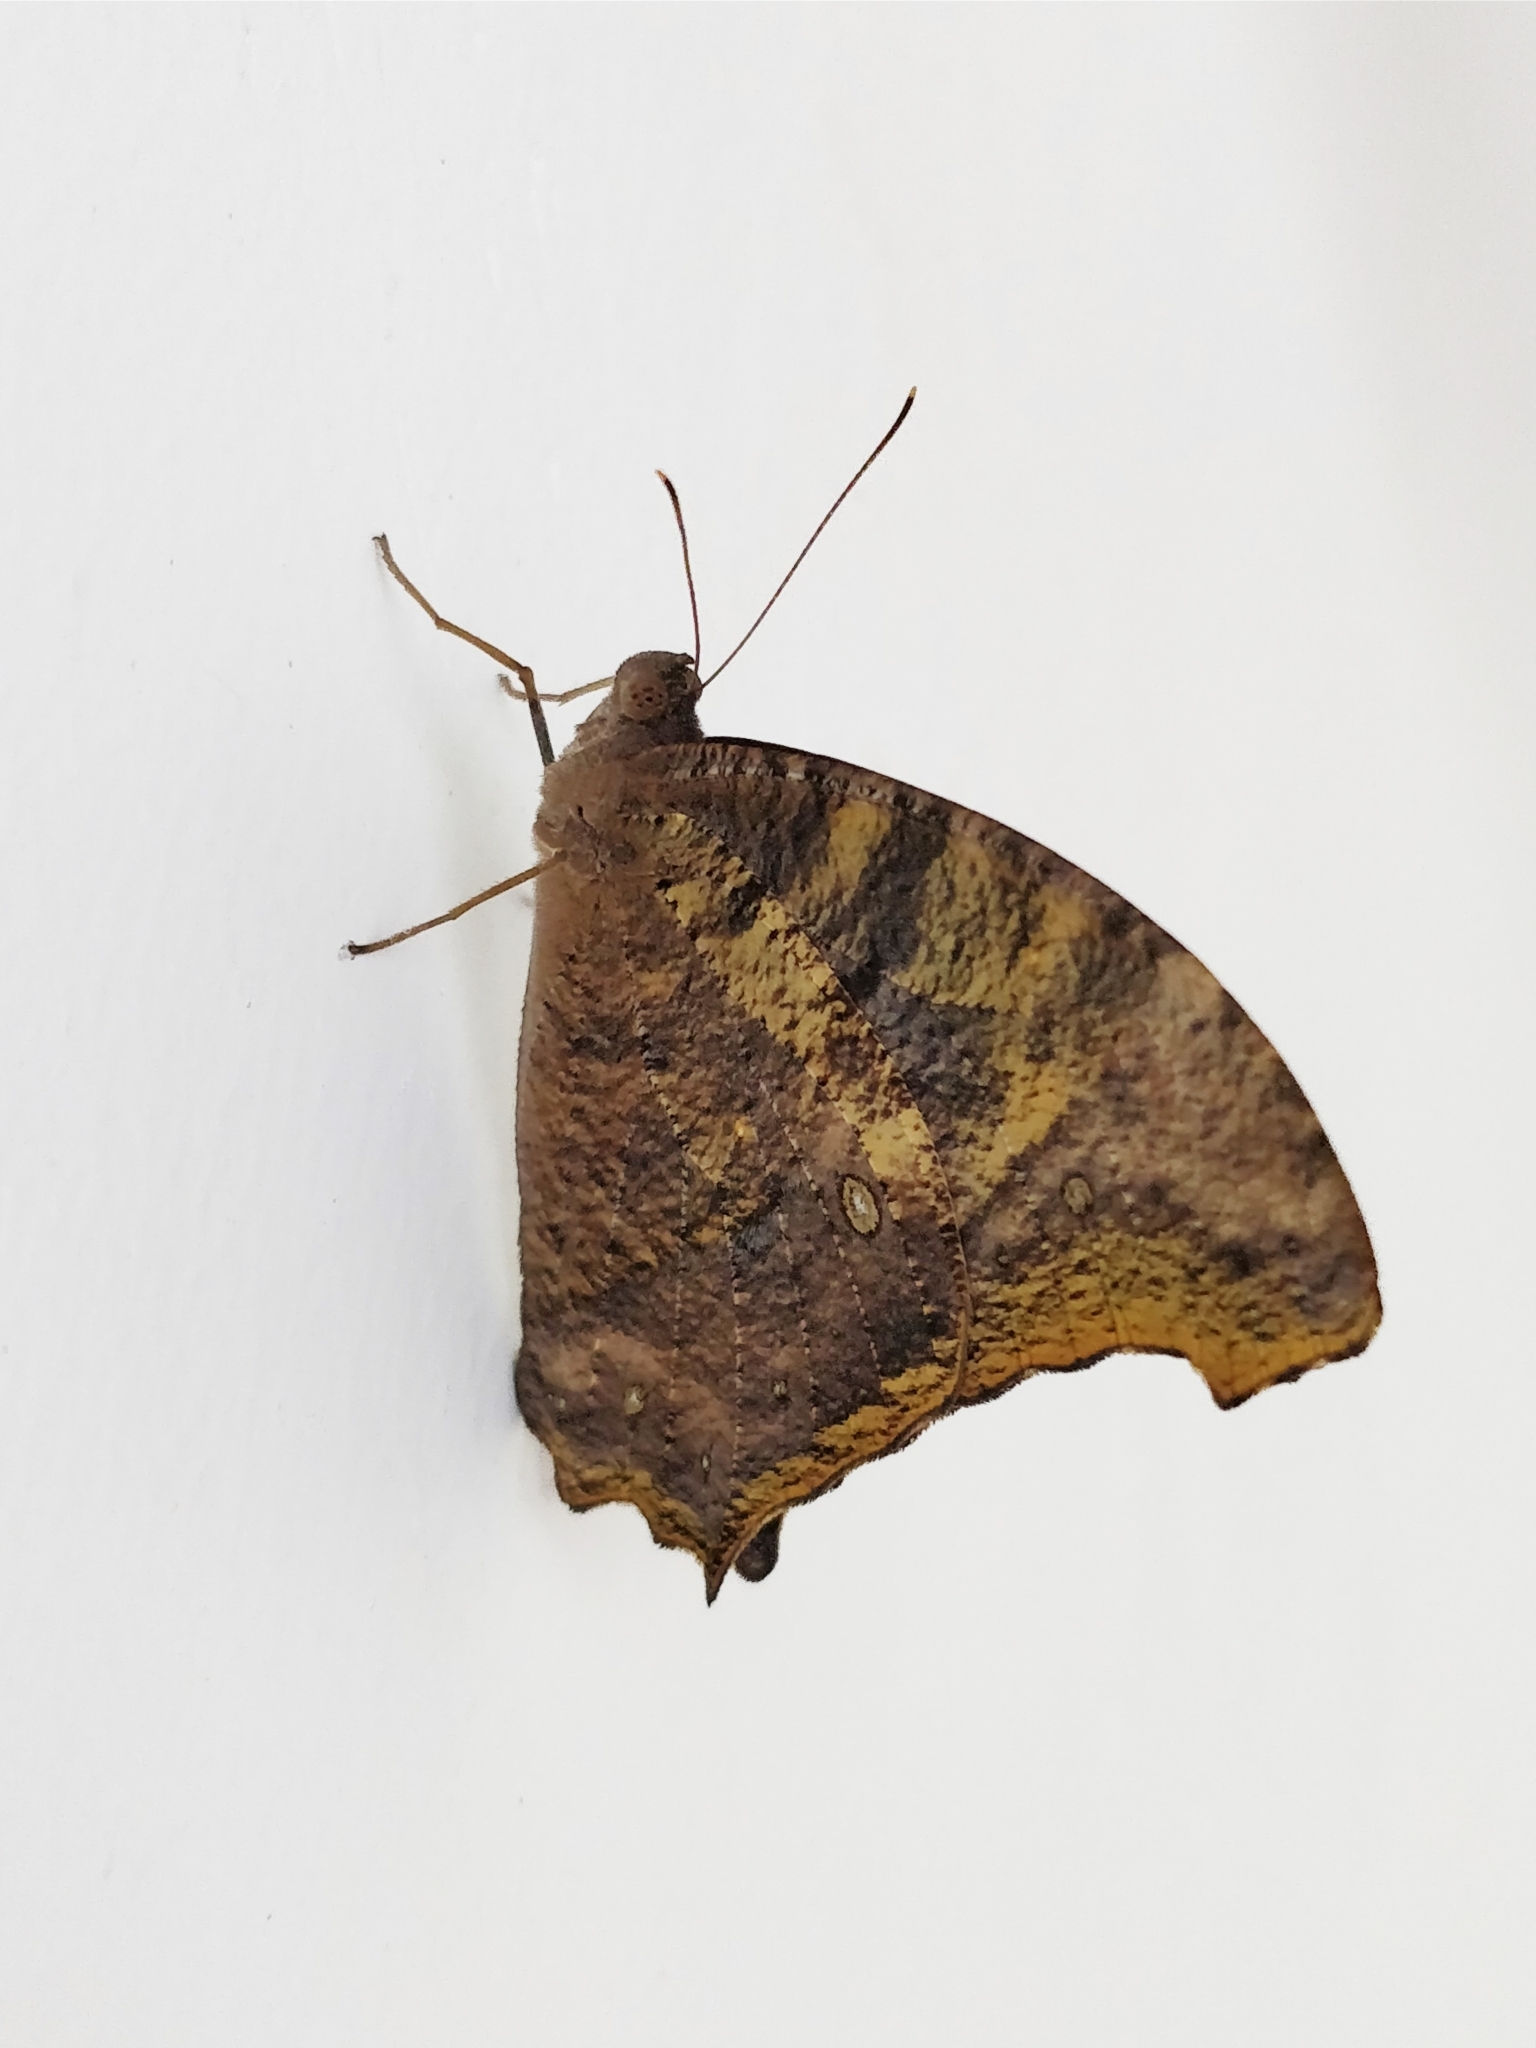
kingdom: Animalia
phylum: Arthropoda
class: Insecta
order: Lepidoptera
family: Nymphalidae
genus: Melanitis
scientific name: Melanitis leda
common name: Twilight brown
